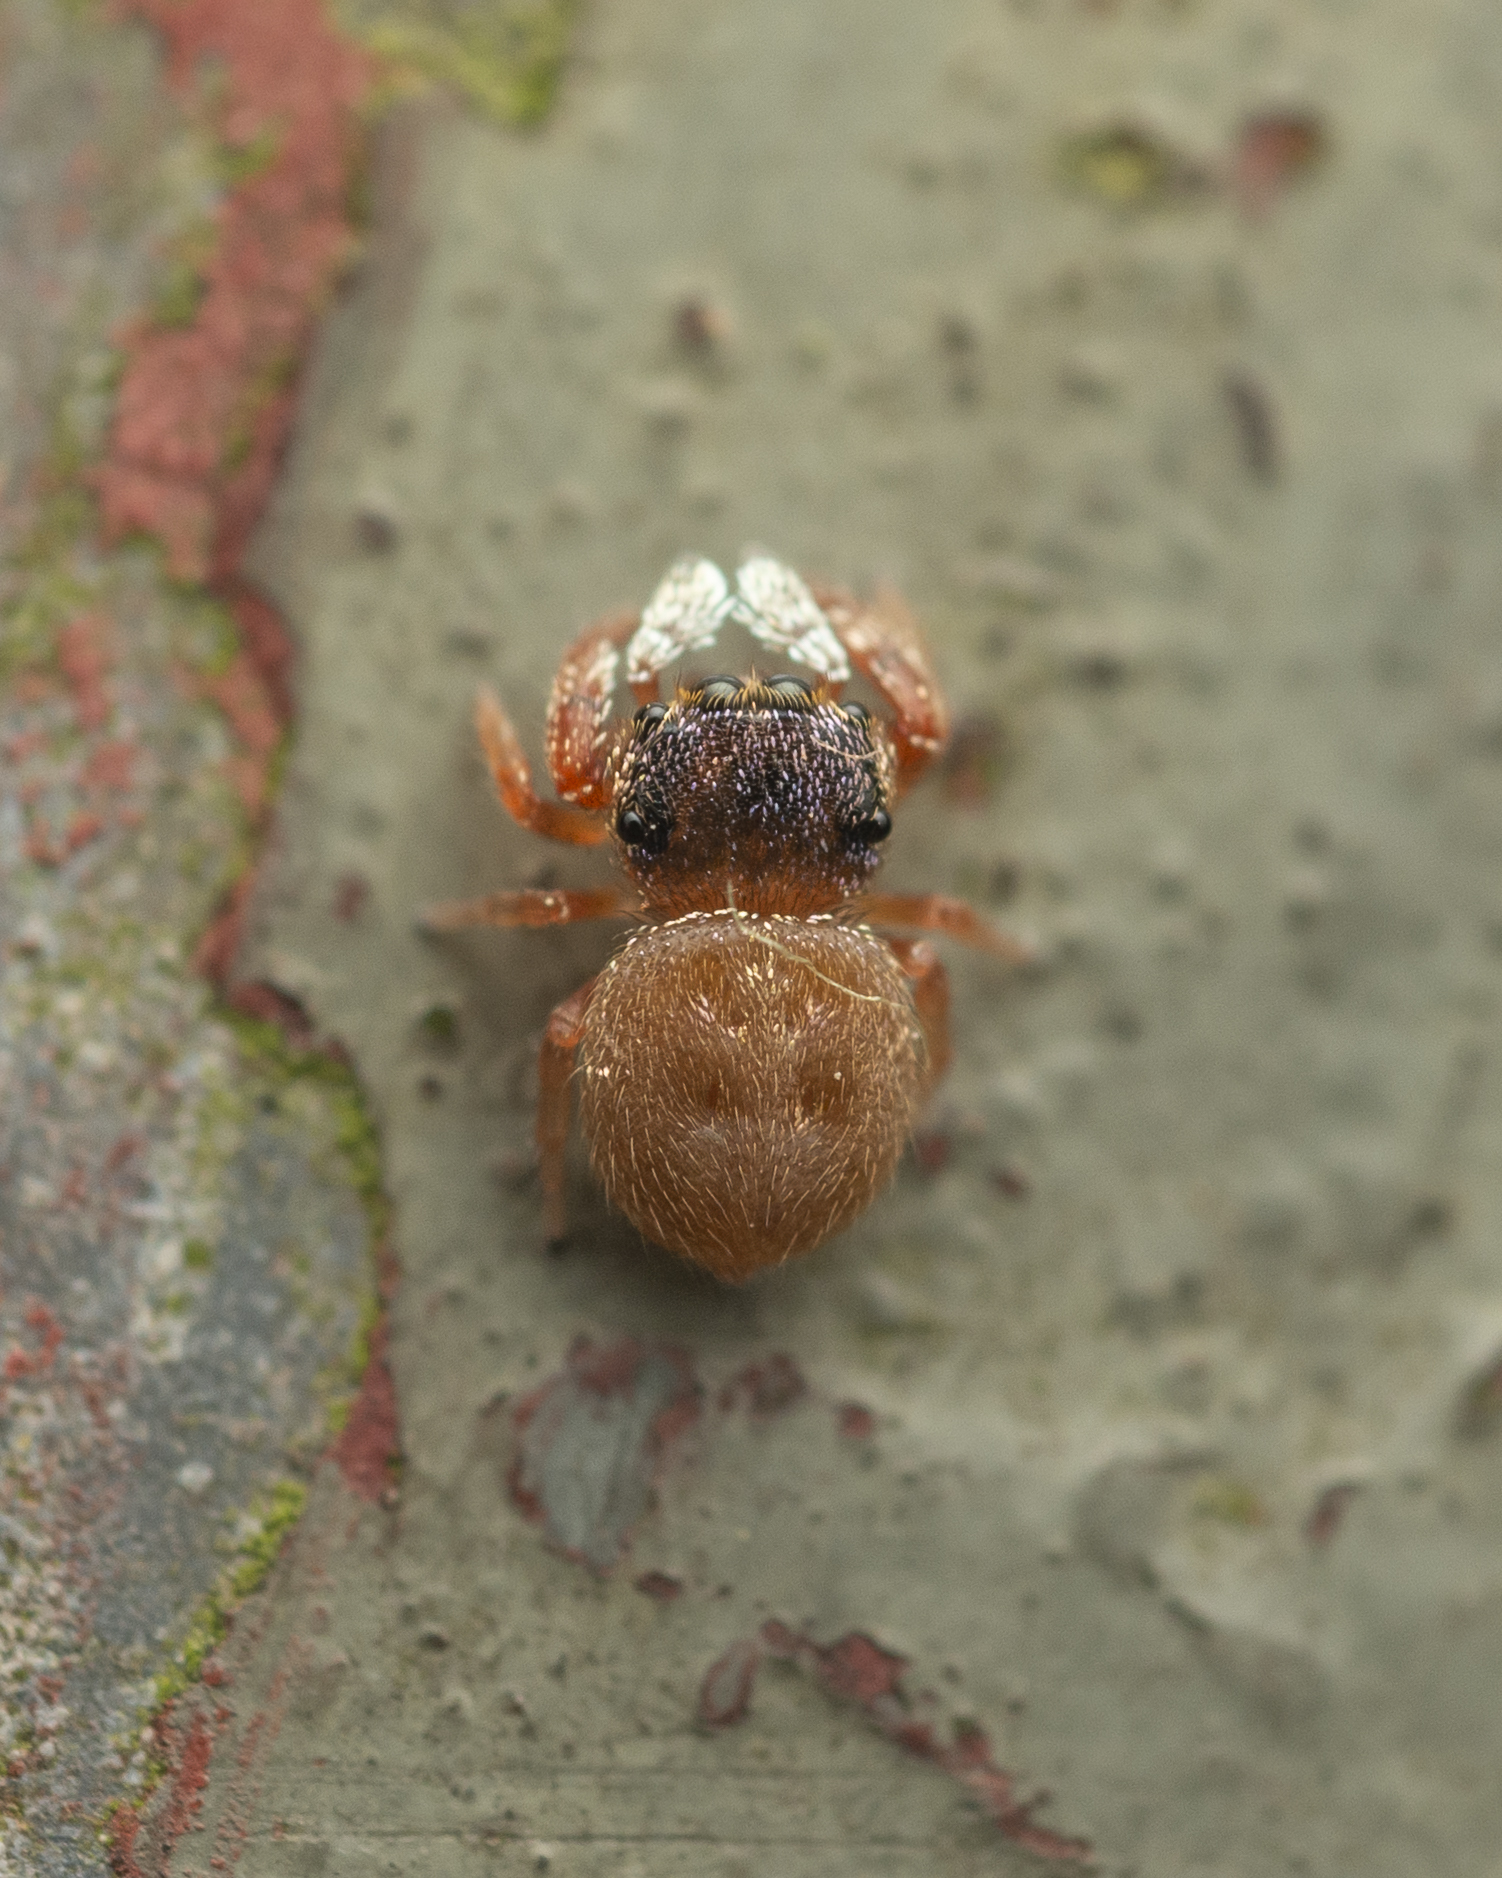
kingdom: Animalia
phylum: Arthropoda
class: Arachnida
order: Araneae
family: Salticidae
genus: Irura
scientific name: Irura bidenticulata
